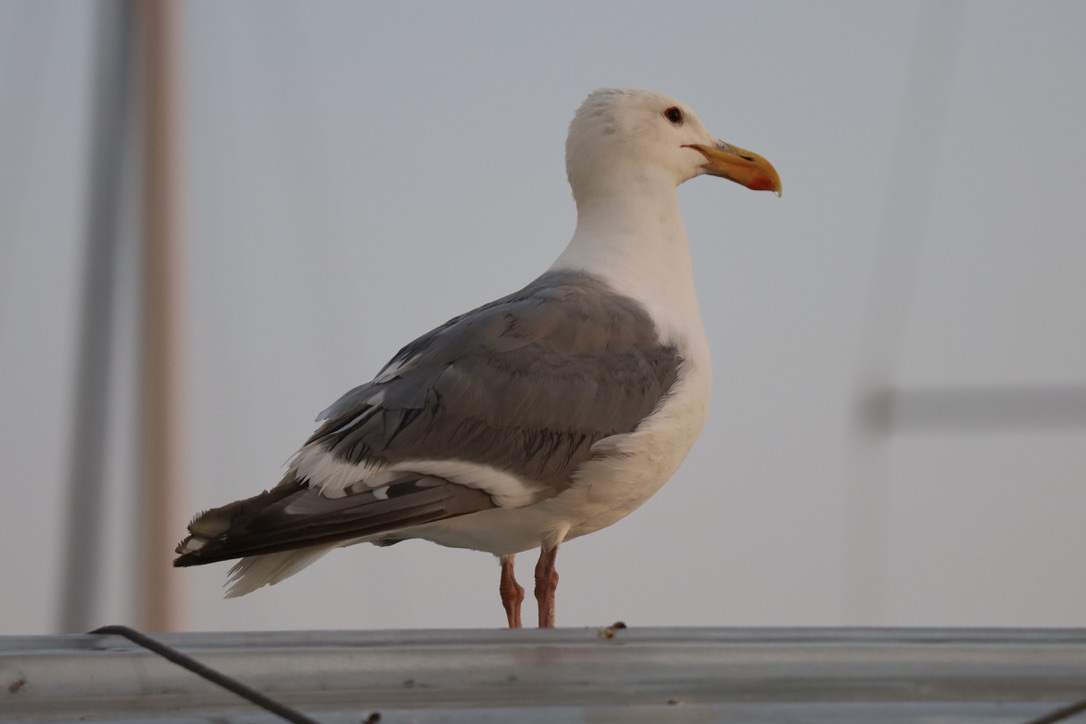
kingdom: Animalia
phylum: Chordata
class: Aves
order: Charadriiformes
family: Laridae
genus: Larus
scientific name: Larus
